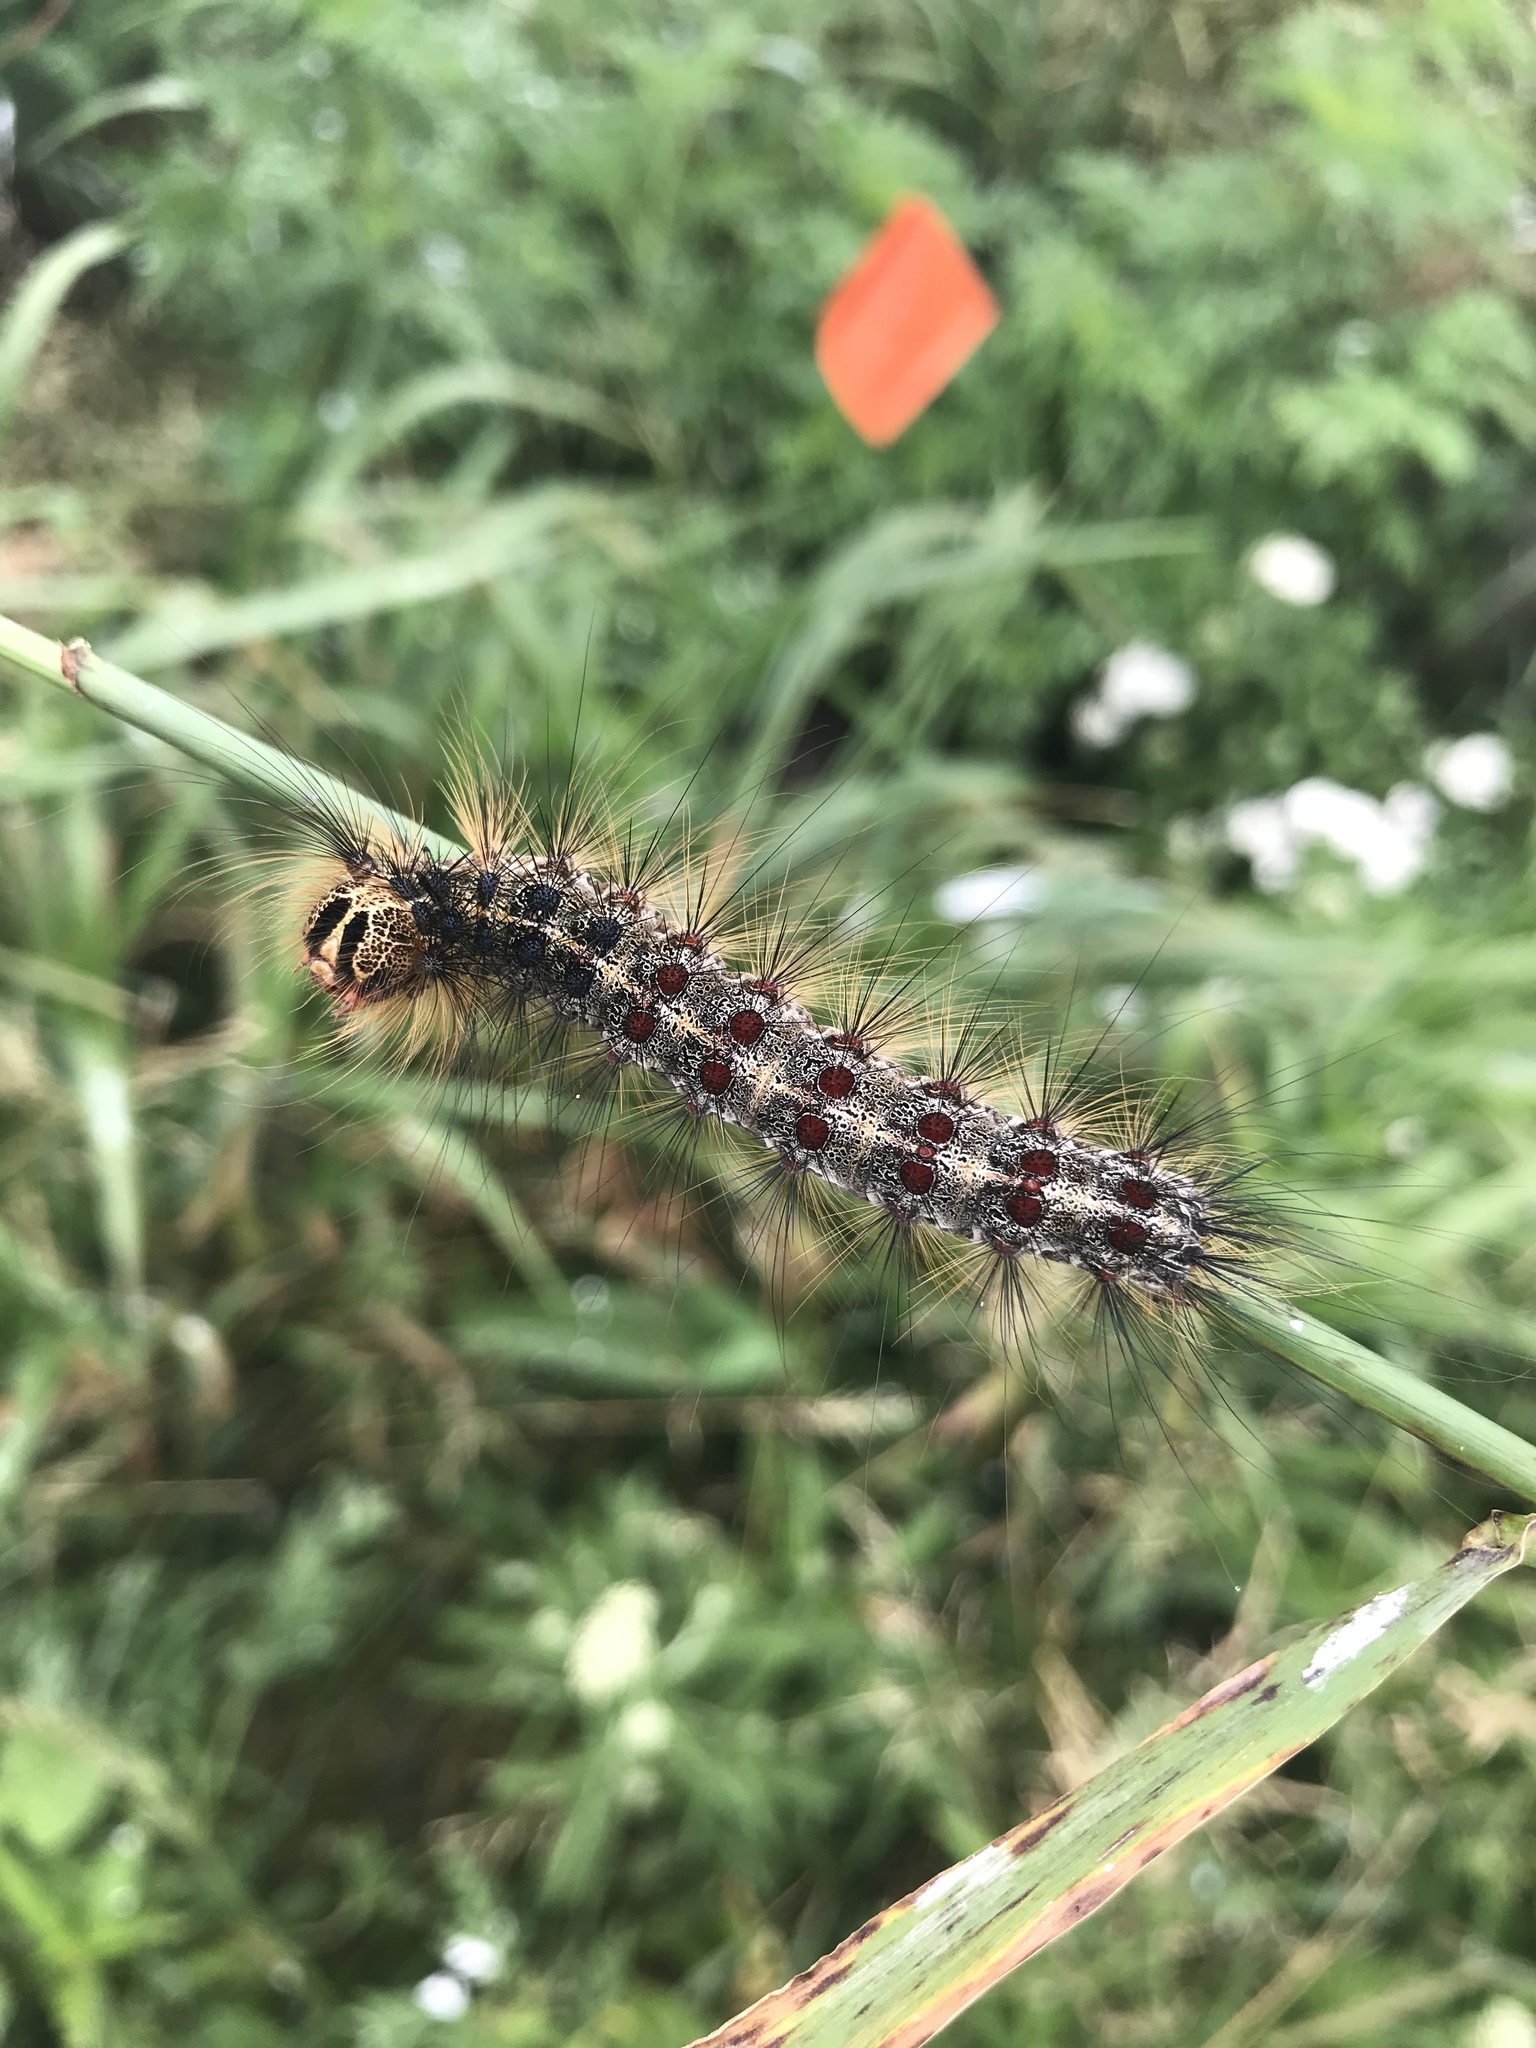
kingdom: Animalia
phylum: Arthropoda
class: Insecta
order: Lepidoptera
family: Erebidae
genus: Lymantria
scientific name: Lymantria dispar
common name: Gypsy moth
